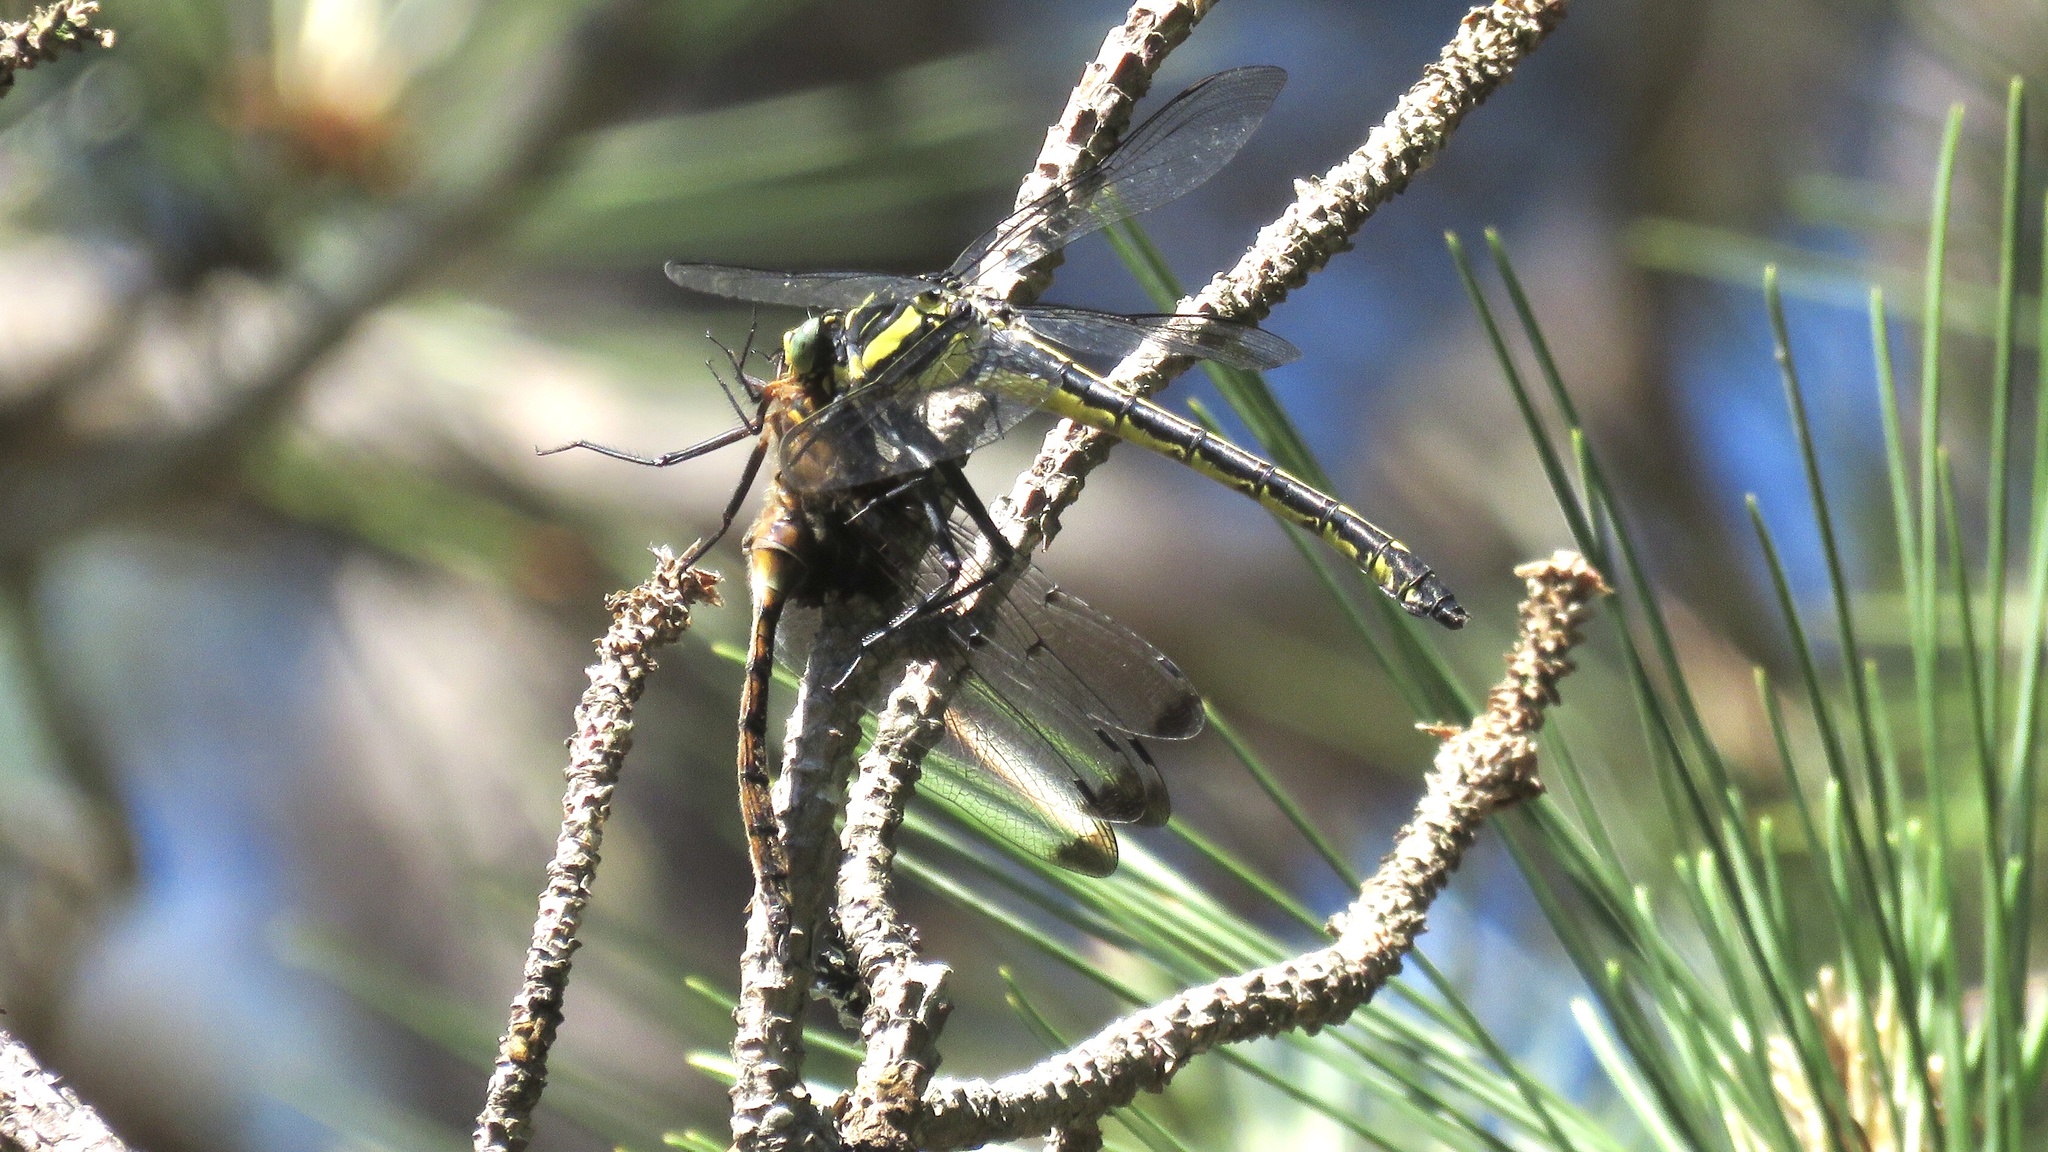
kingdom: Animalia
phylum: Arthropoda
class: Insecta
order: Odonata
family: Gomphidae
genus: Hagenius
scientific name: Hagenius brevistylus
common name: Dragonhunter
